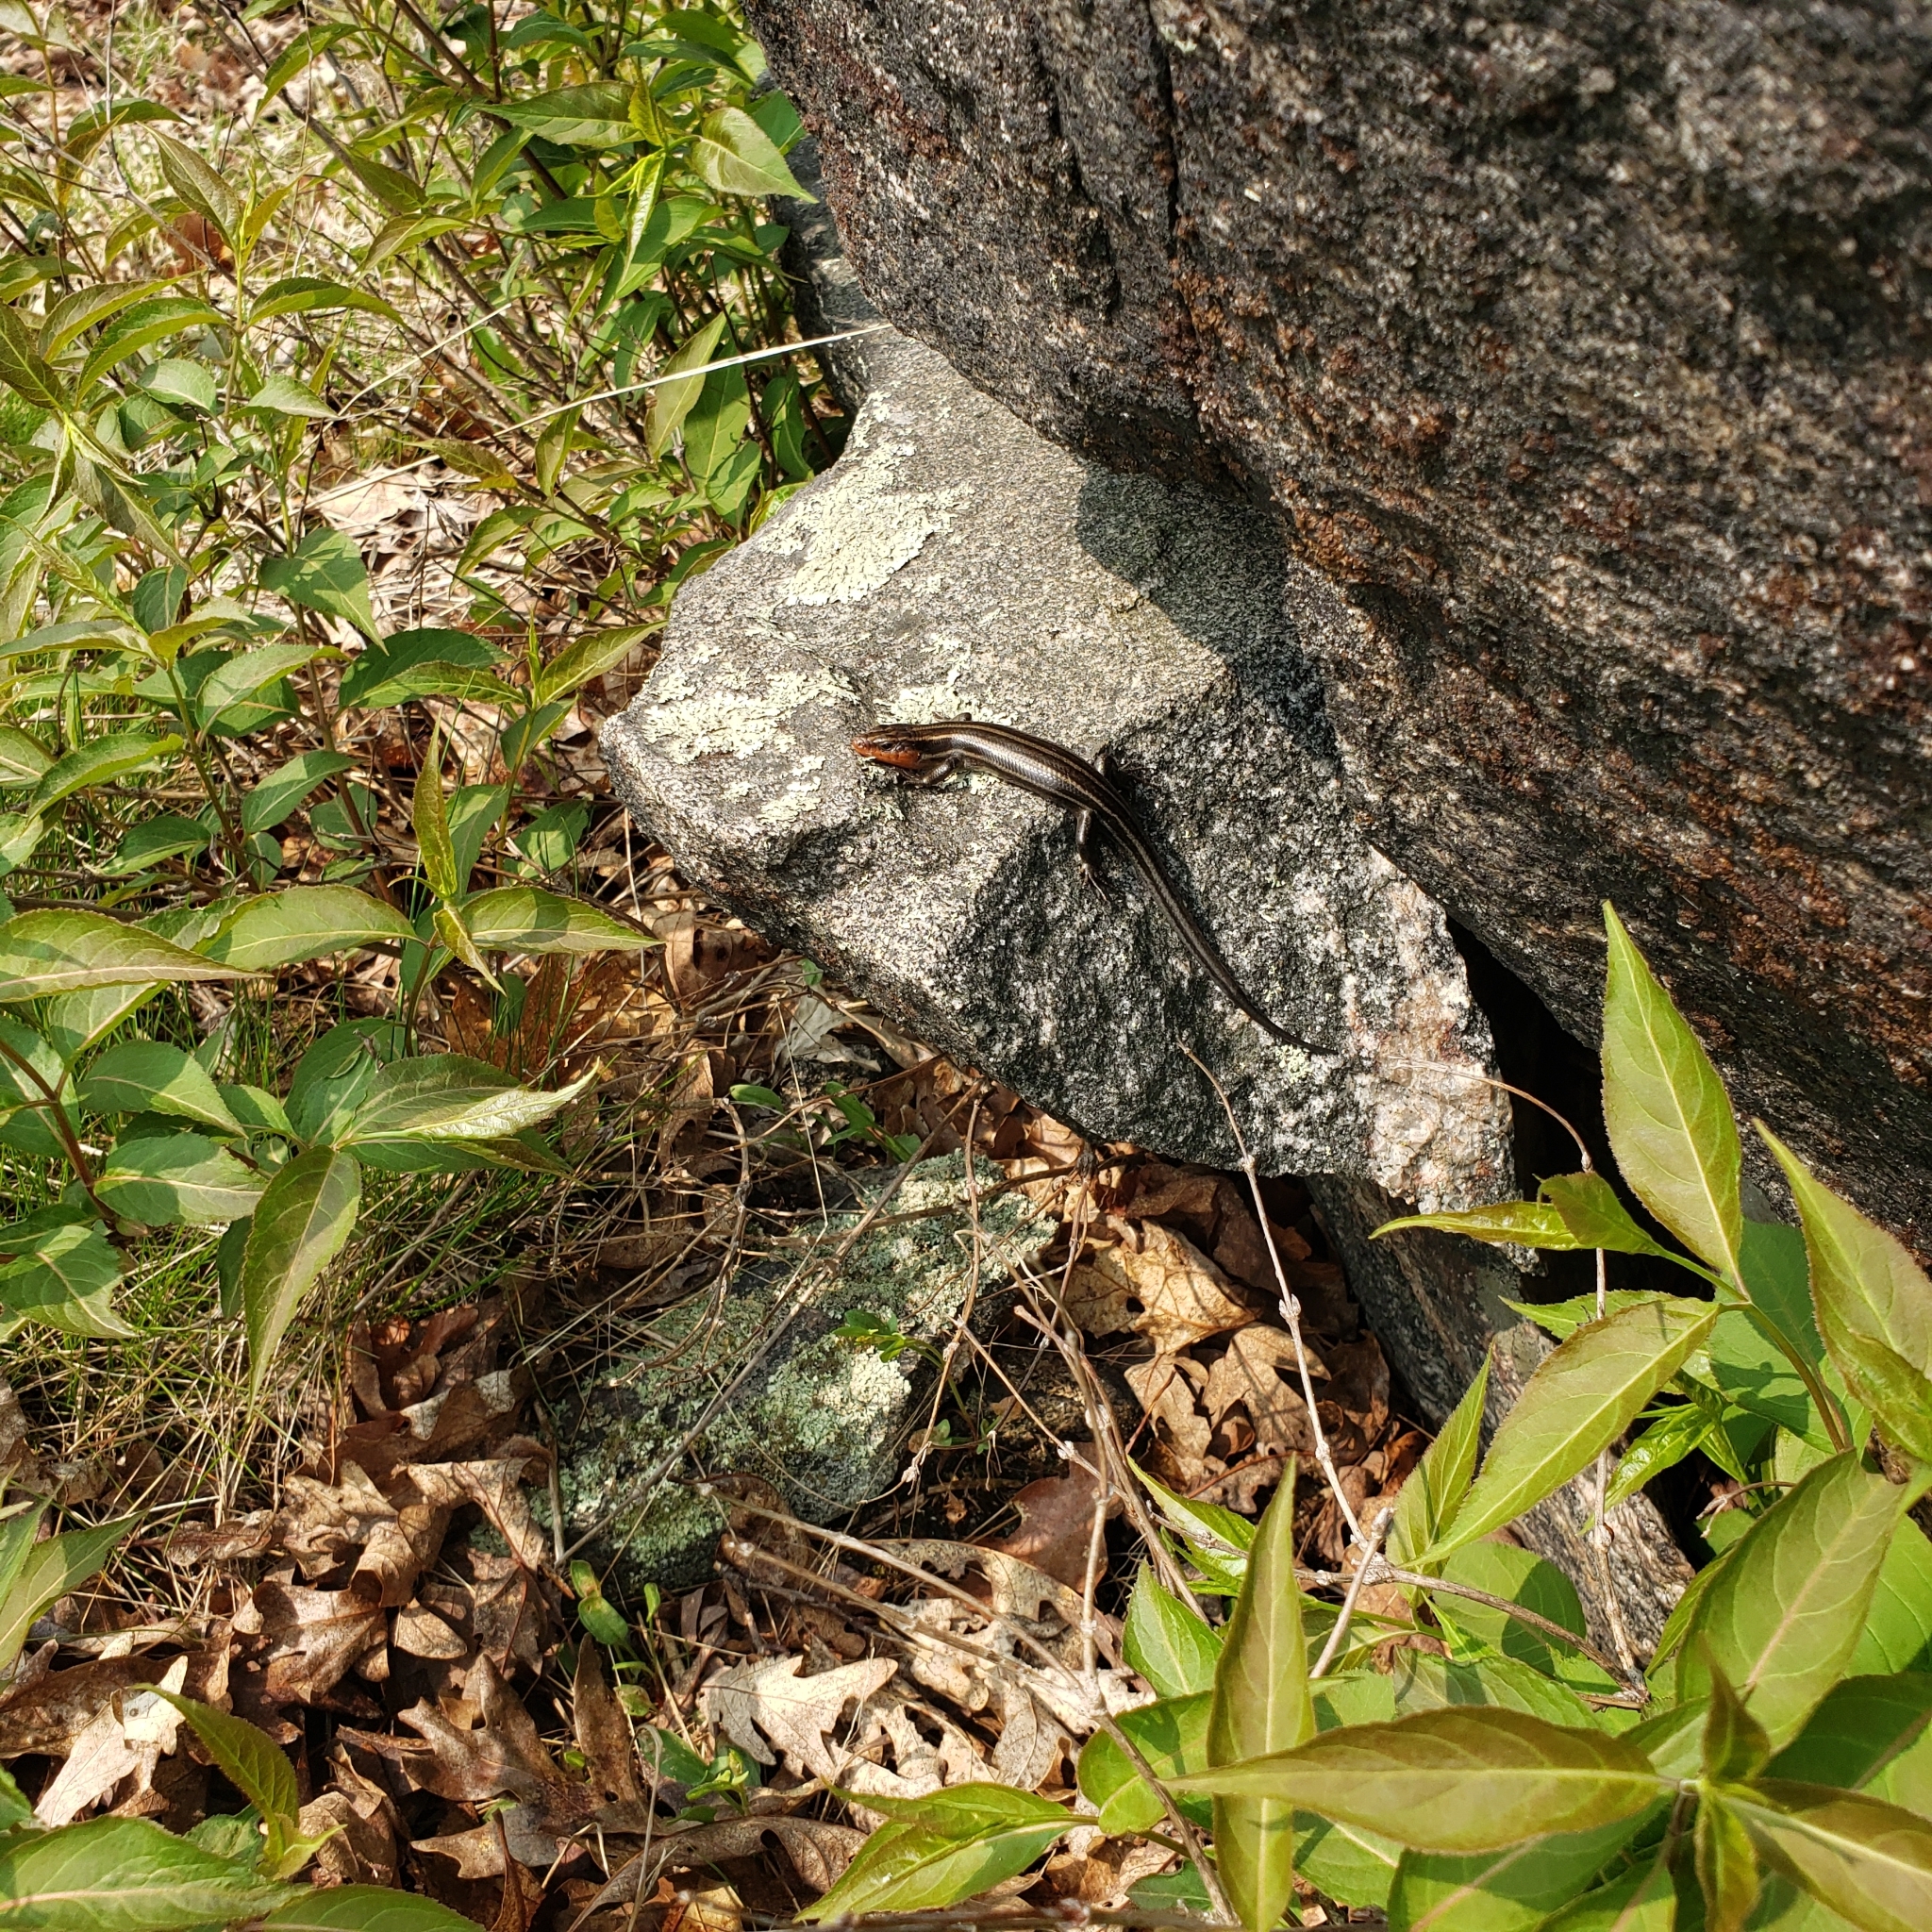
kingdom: Animalia
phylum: Chordata
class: Squamata
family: Scincidae
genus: Plestiodon
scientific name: Plestiodon fasciatus
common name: Five-lined skink
